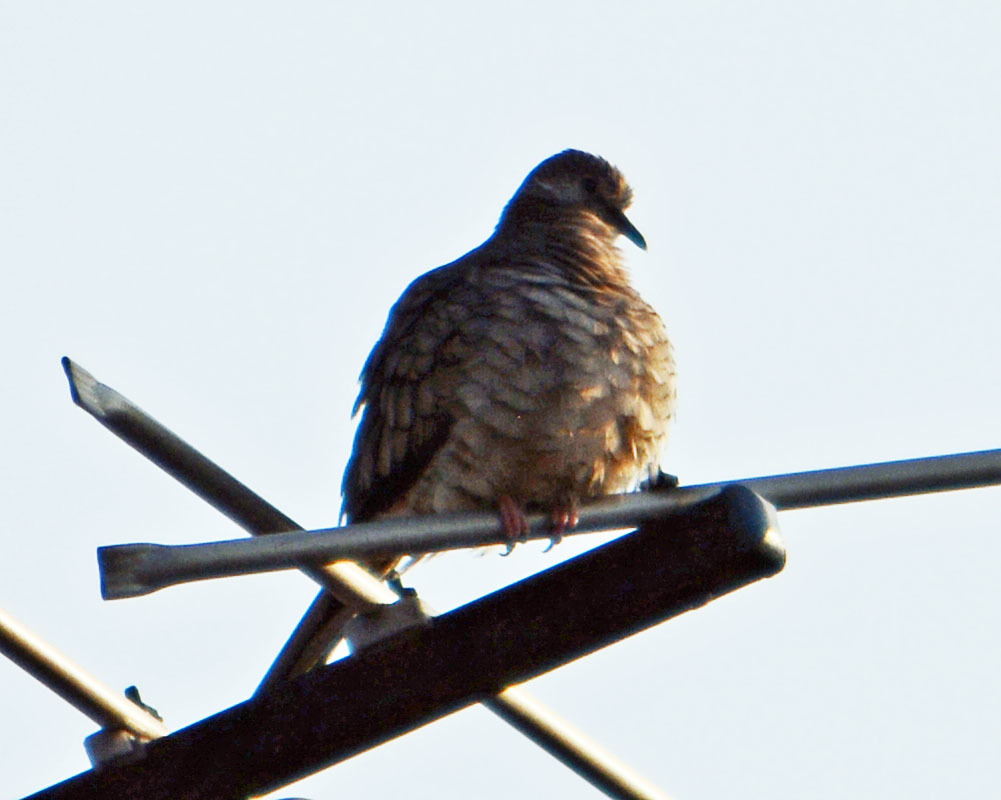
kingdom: Animalia
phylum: Chordata
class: Aves
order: Columbiformes
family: Columbidae
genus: Columbina
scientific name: Columbina inca
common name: Inca dove
